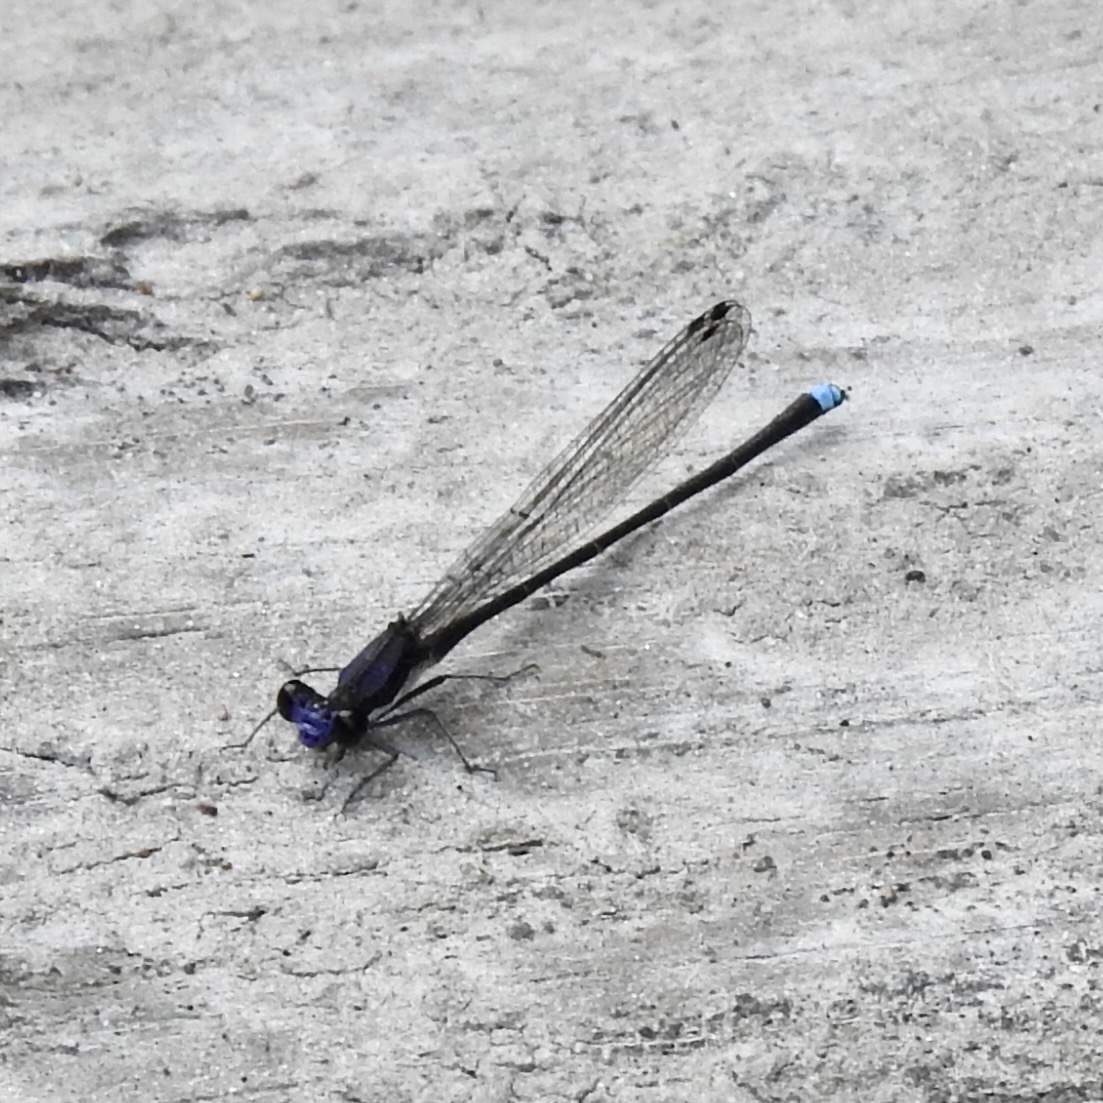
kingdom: Animalia
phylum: Arthropoda
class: Insecta
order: Odonata
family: Coenagrionidae
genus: Argia
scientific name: Argia tibialis
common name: Blue-tipped dancer
